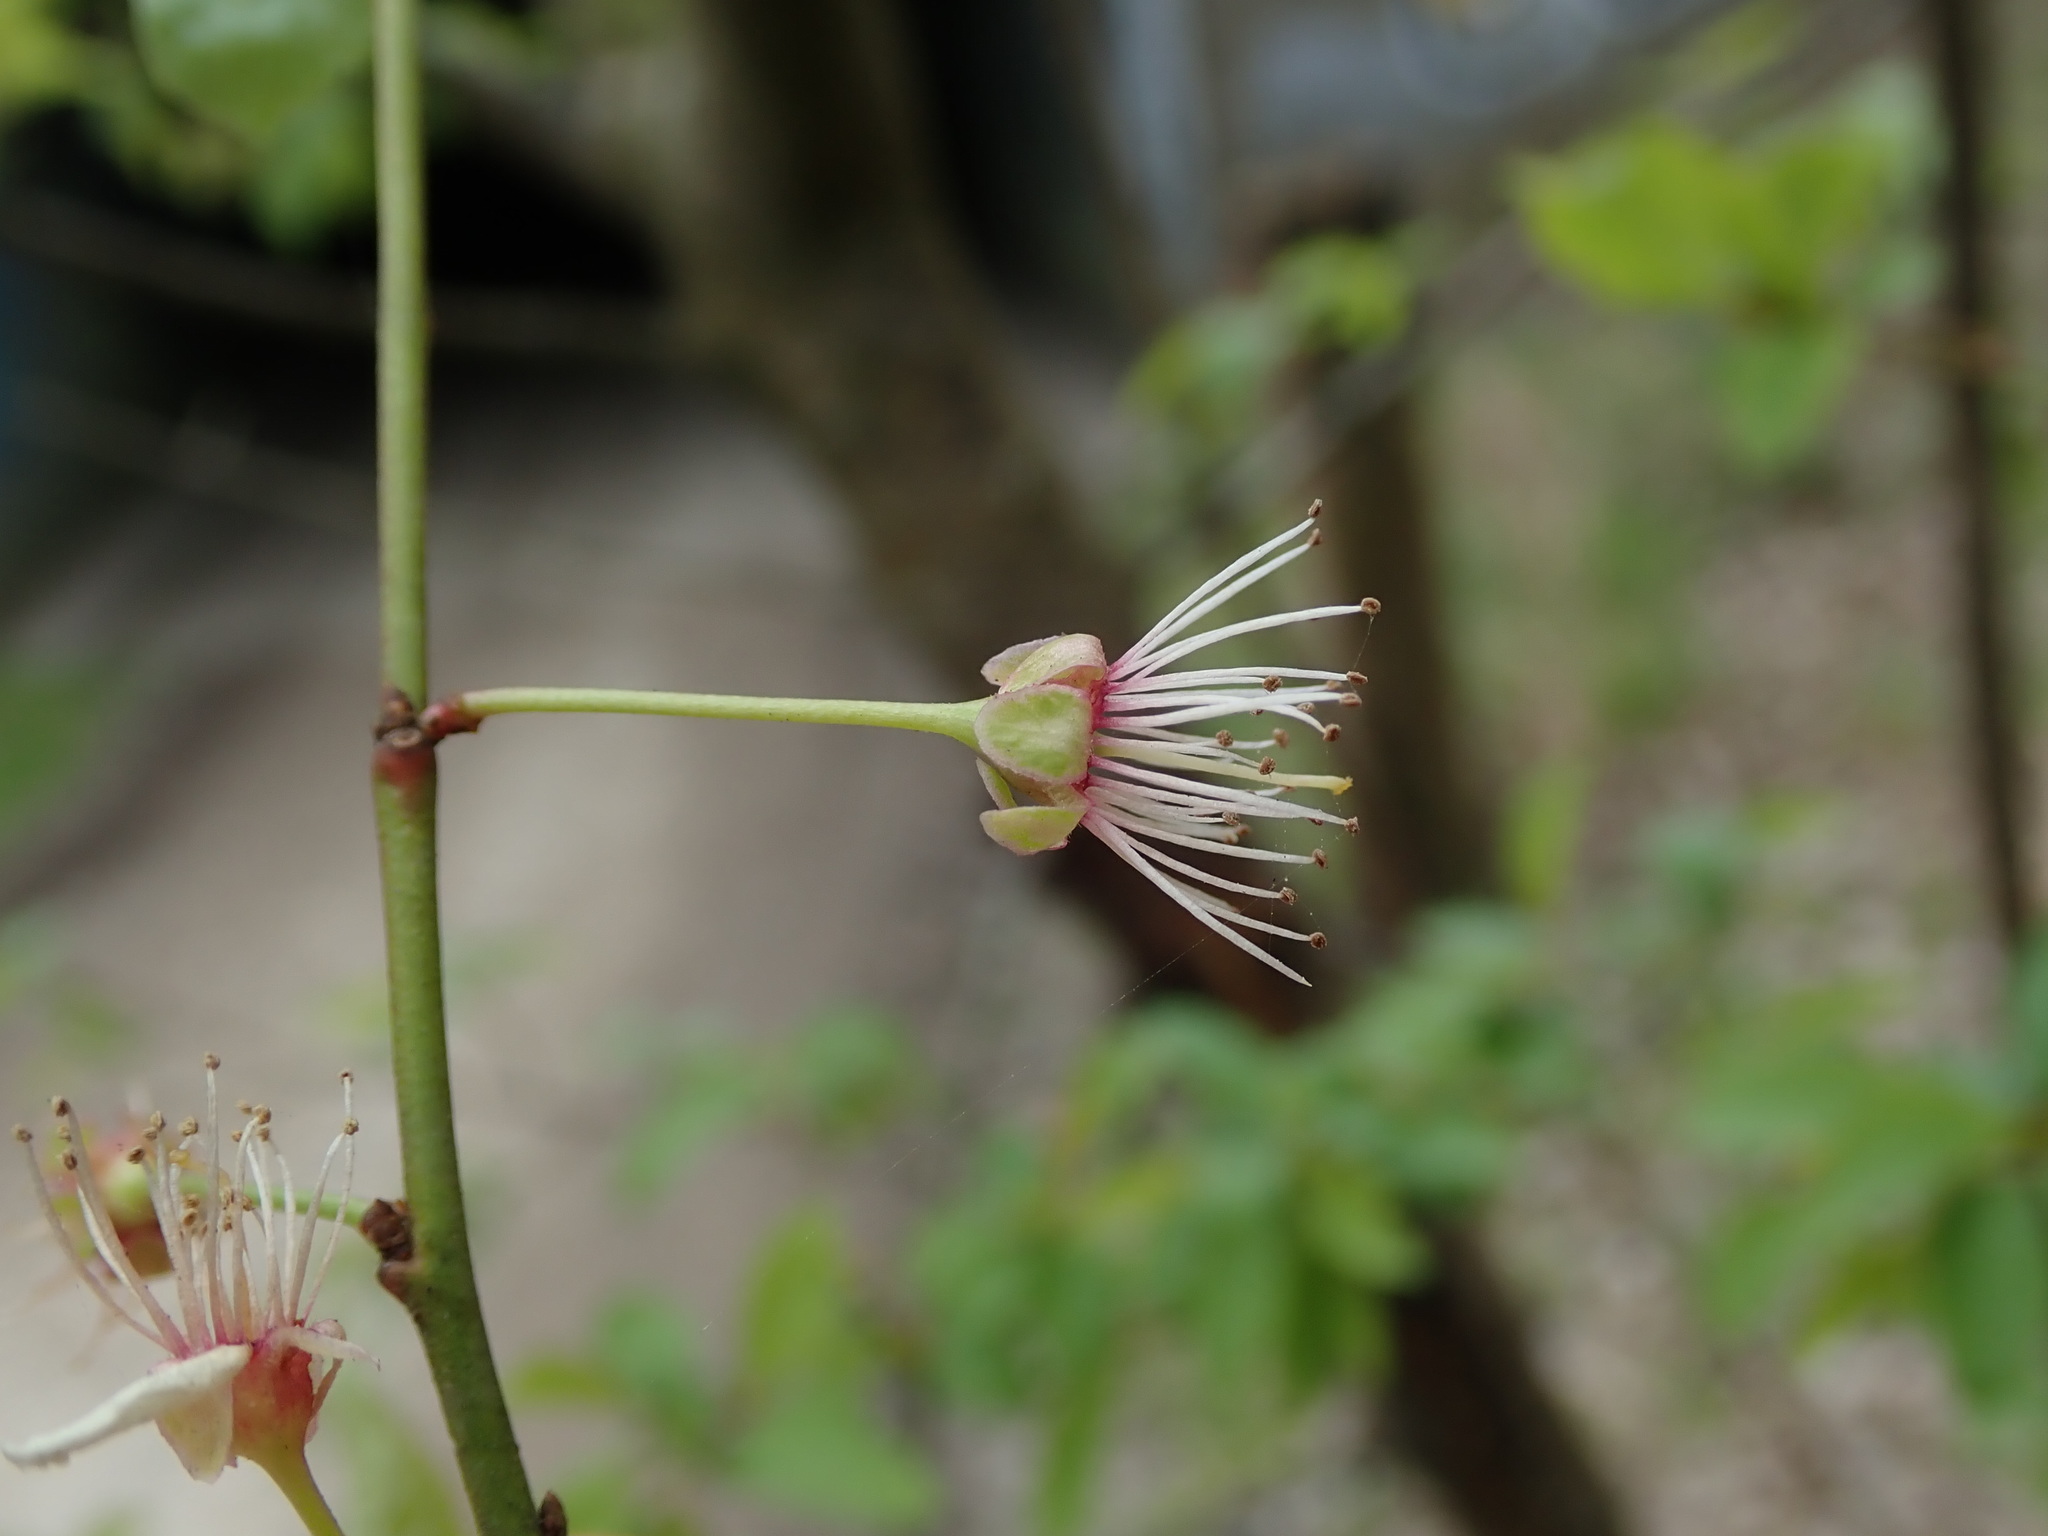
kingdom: Plantae
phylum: Tracheophyta
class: Magnoliopsida
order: Rosales
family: Rosaceae
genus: Prunus
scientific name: Prunus cerasifera
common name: Cherry plum
